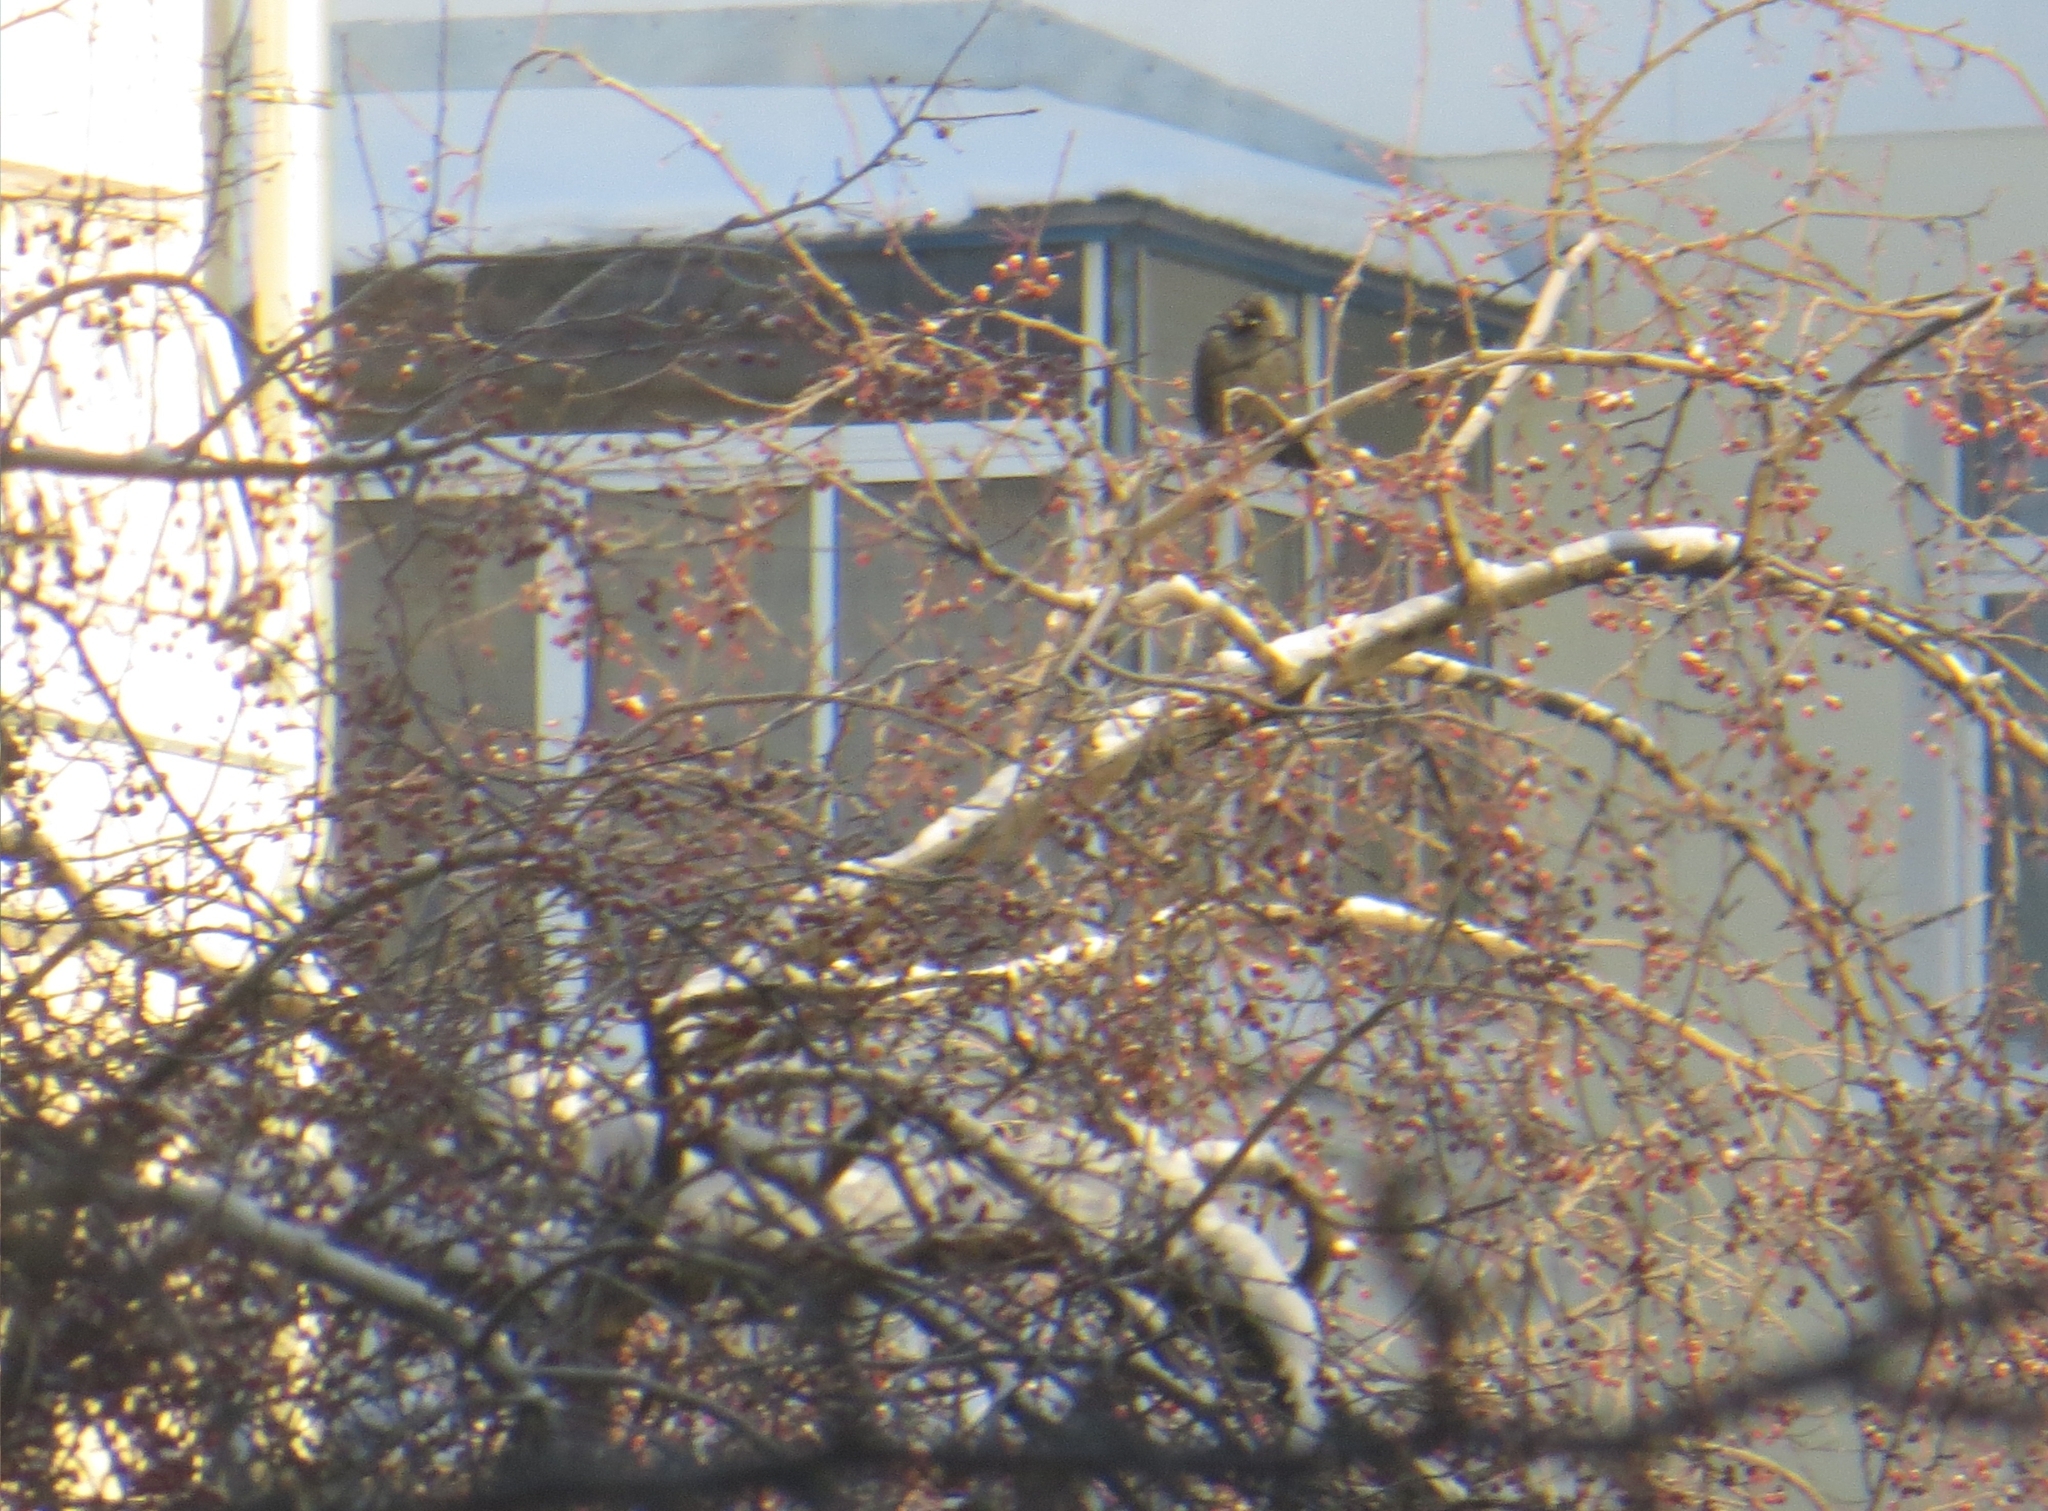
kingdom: Animalia
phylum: Chordata
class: Aves
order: Passeriformes
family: Corvidae
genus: Coloeus
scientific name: Coloeus monedula
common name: Western jackdaw
